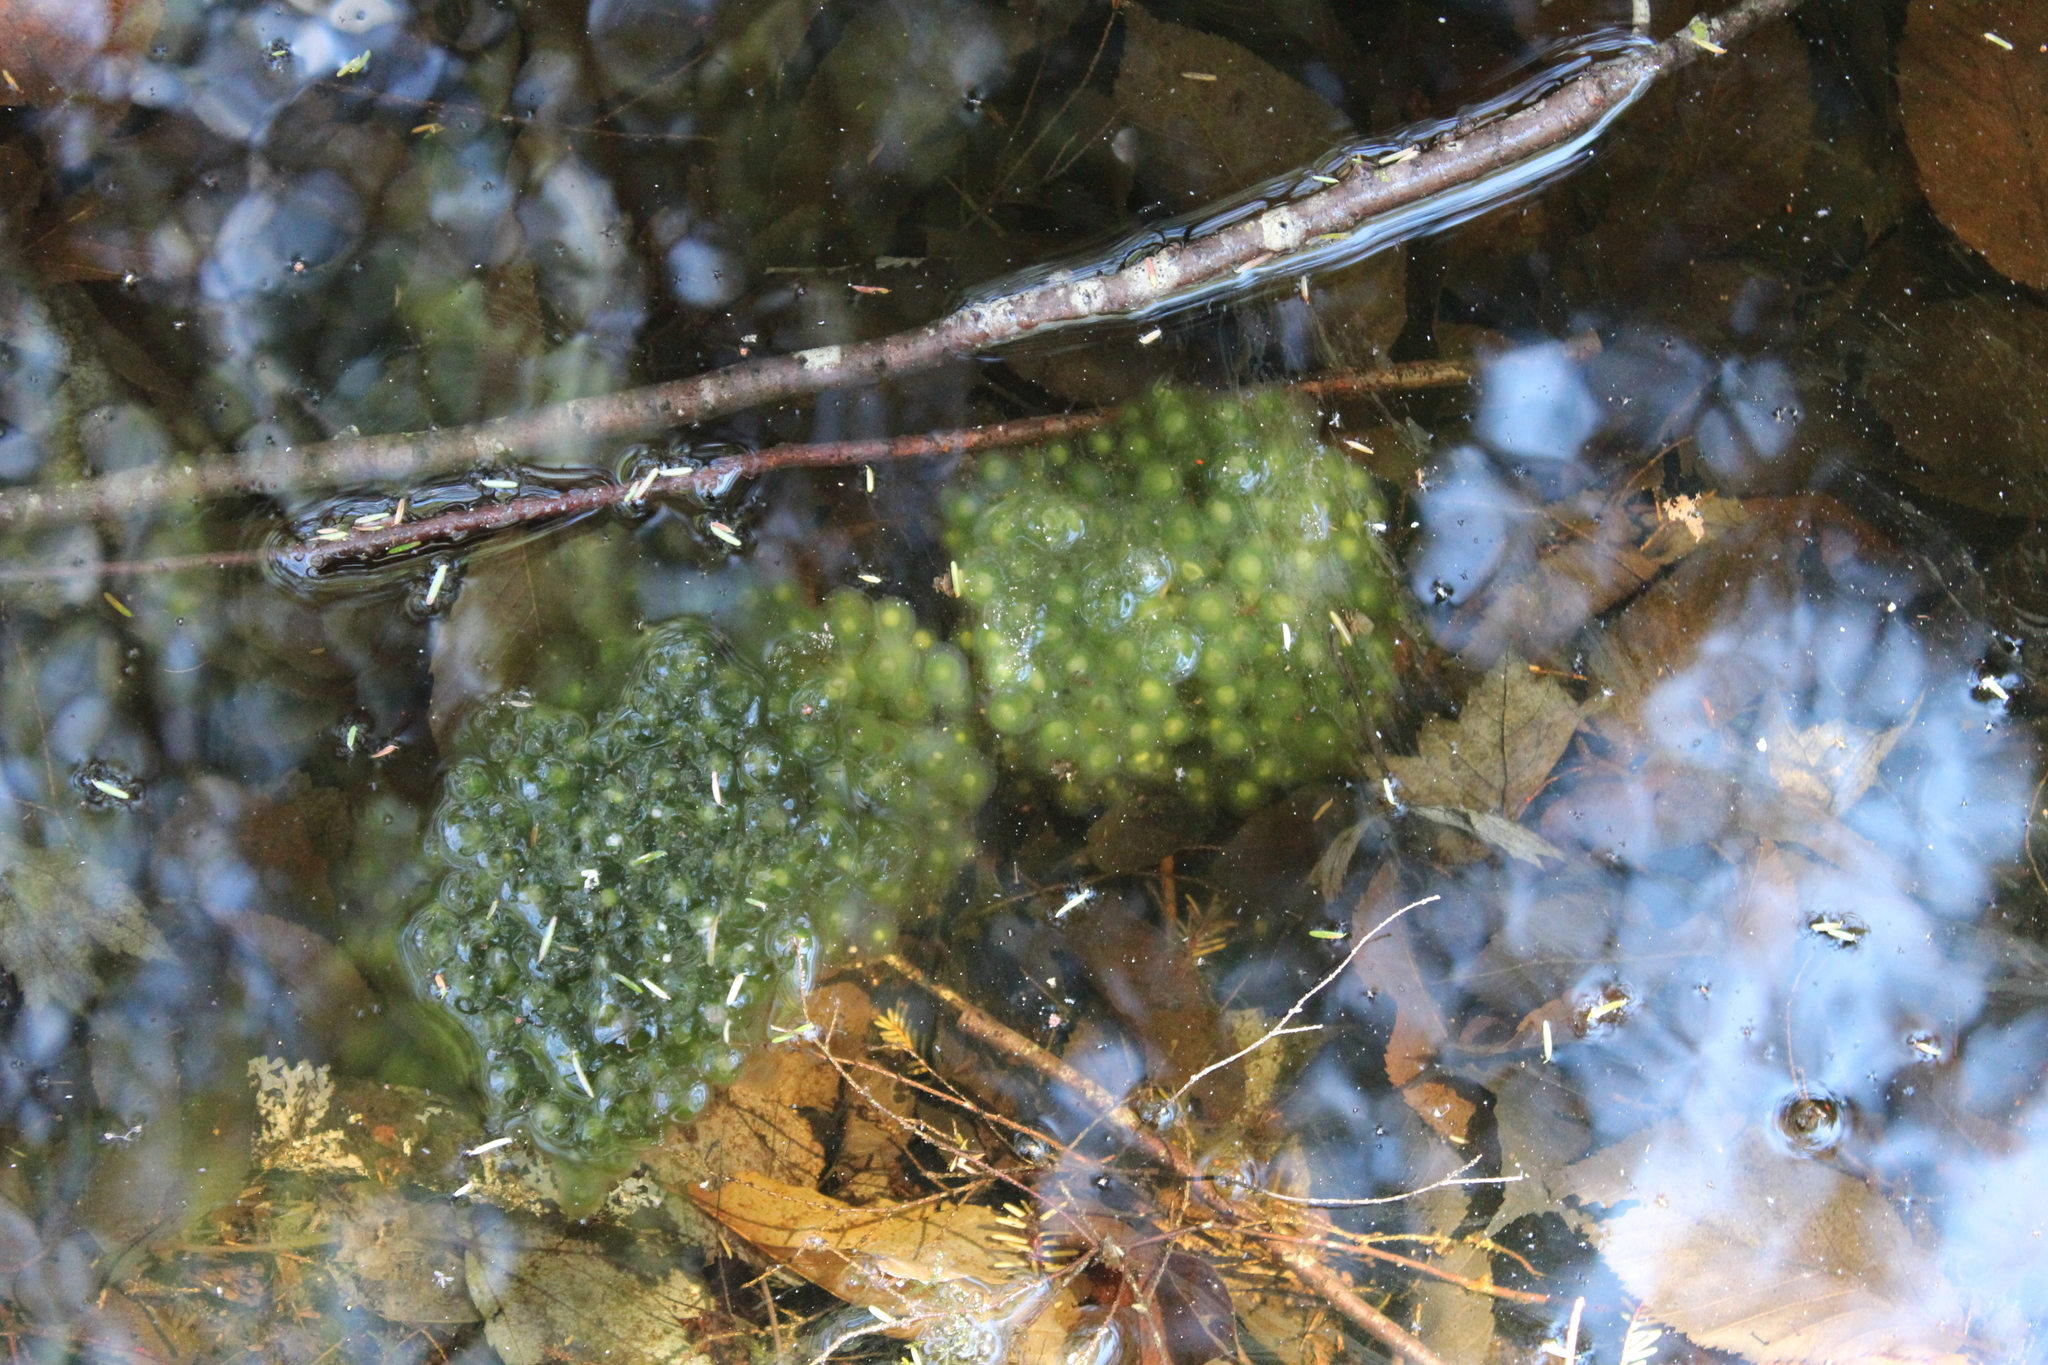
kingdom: Animalia
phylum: Chordata
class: Amphibia
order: Anura
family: Ranidae
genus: Lithobates
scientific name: Lithobates sylvaticus
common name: Wood frog
